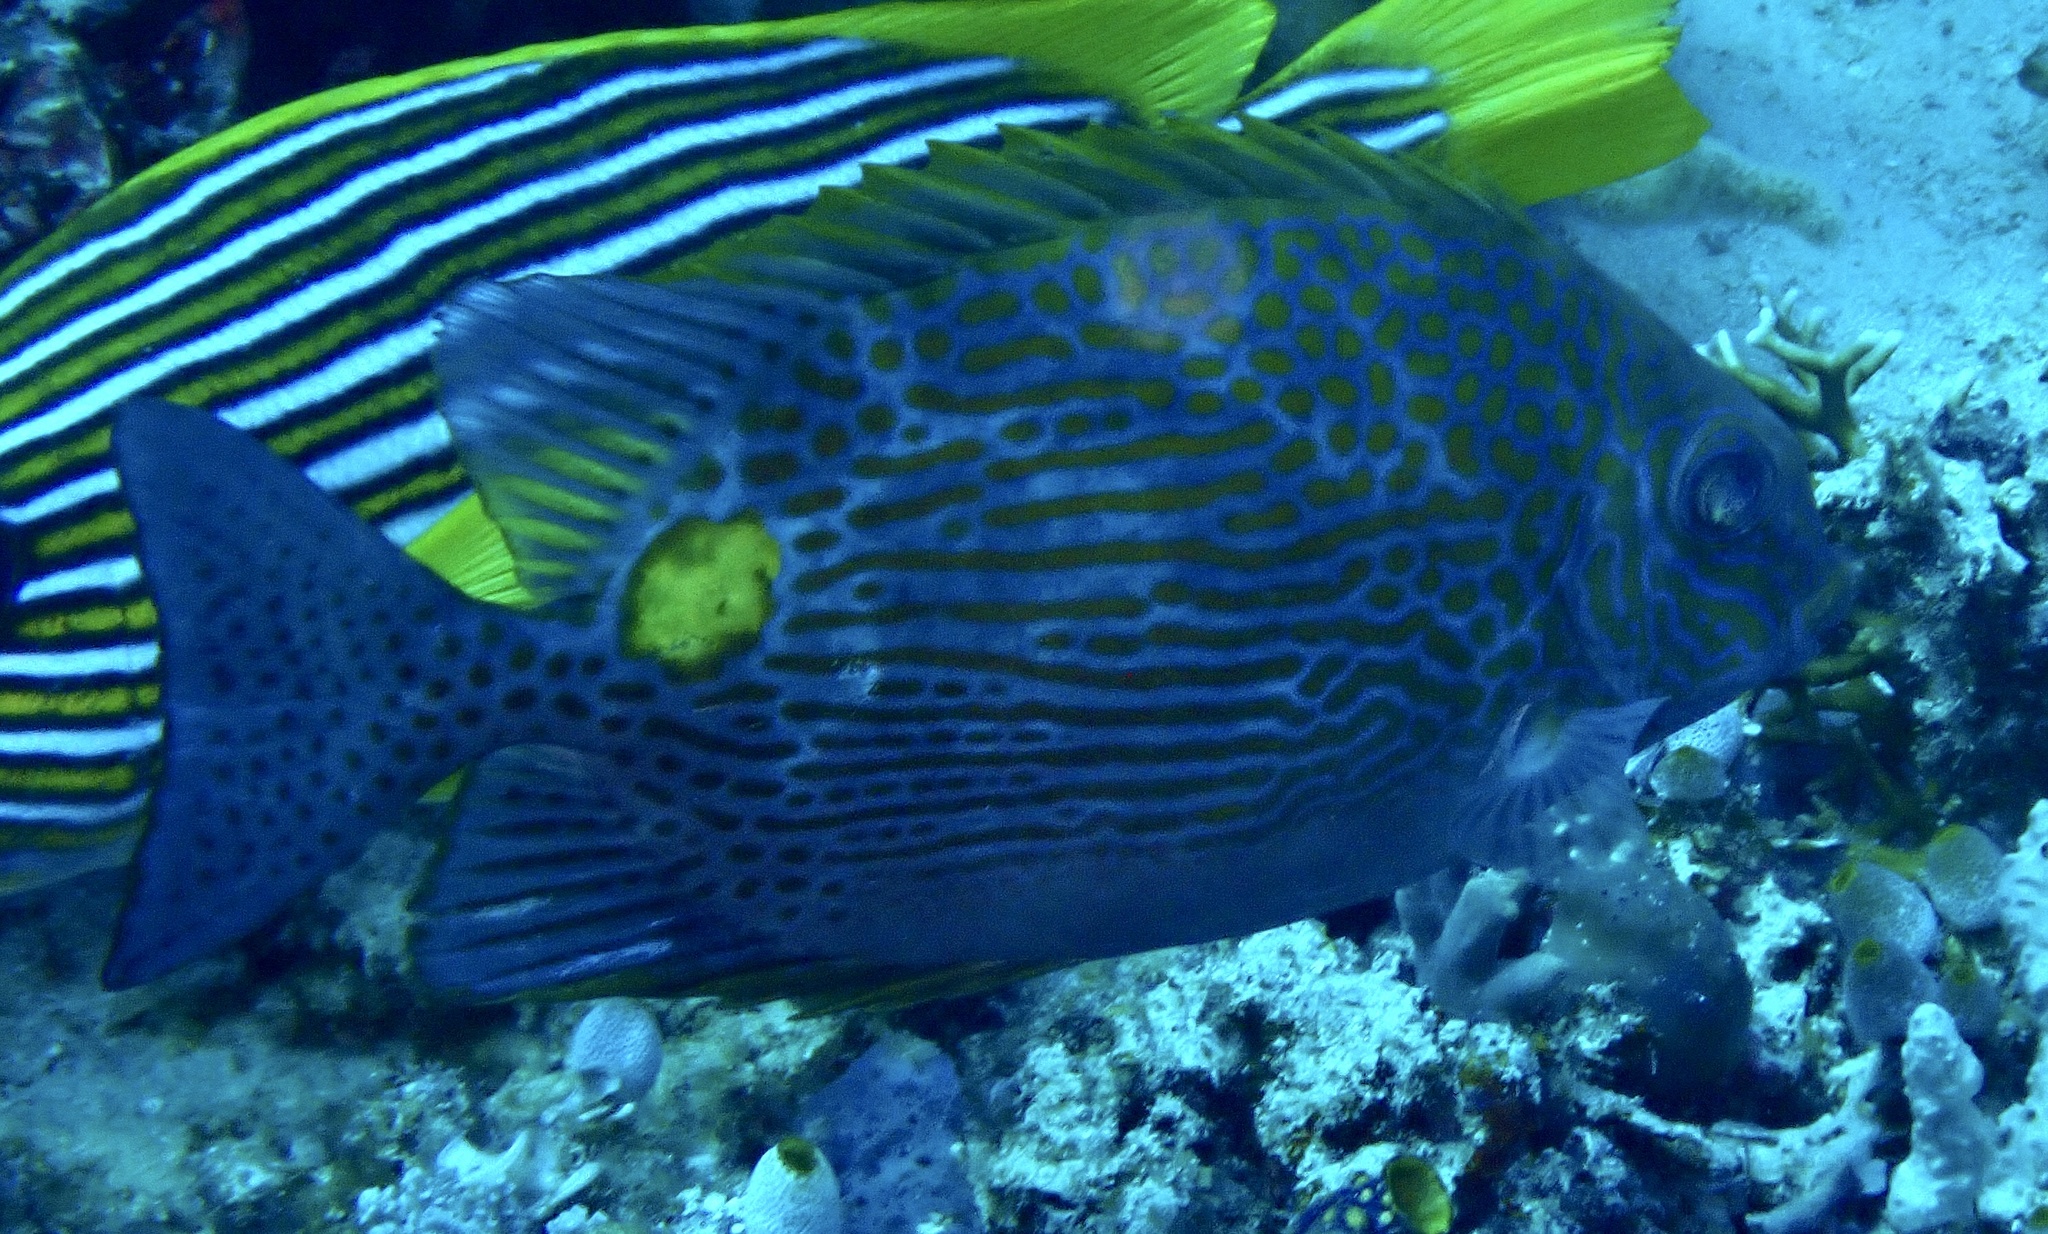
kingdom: Animalia
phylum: Chordata
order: Perciformes
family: Siganidae
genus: Siganus
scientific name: Siganus lineatus
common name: Lined rabbitfish
